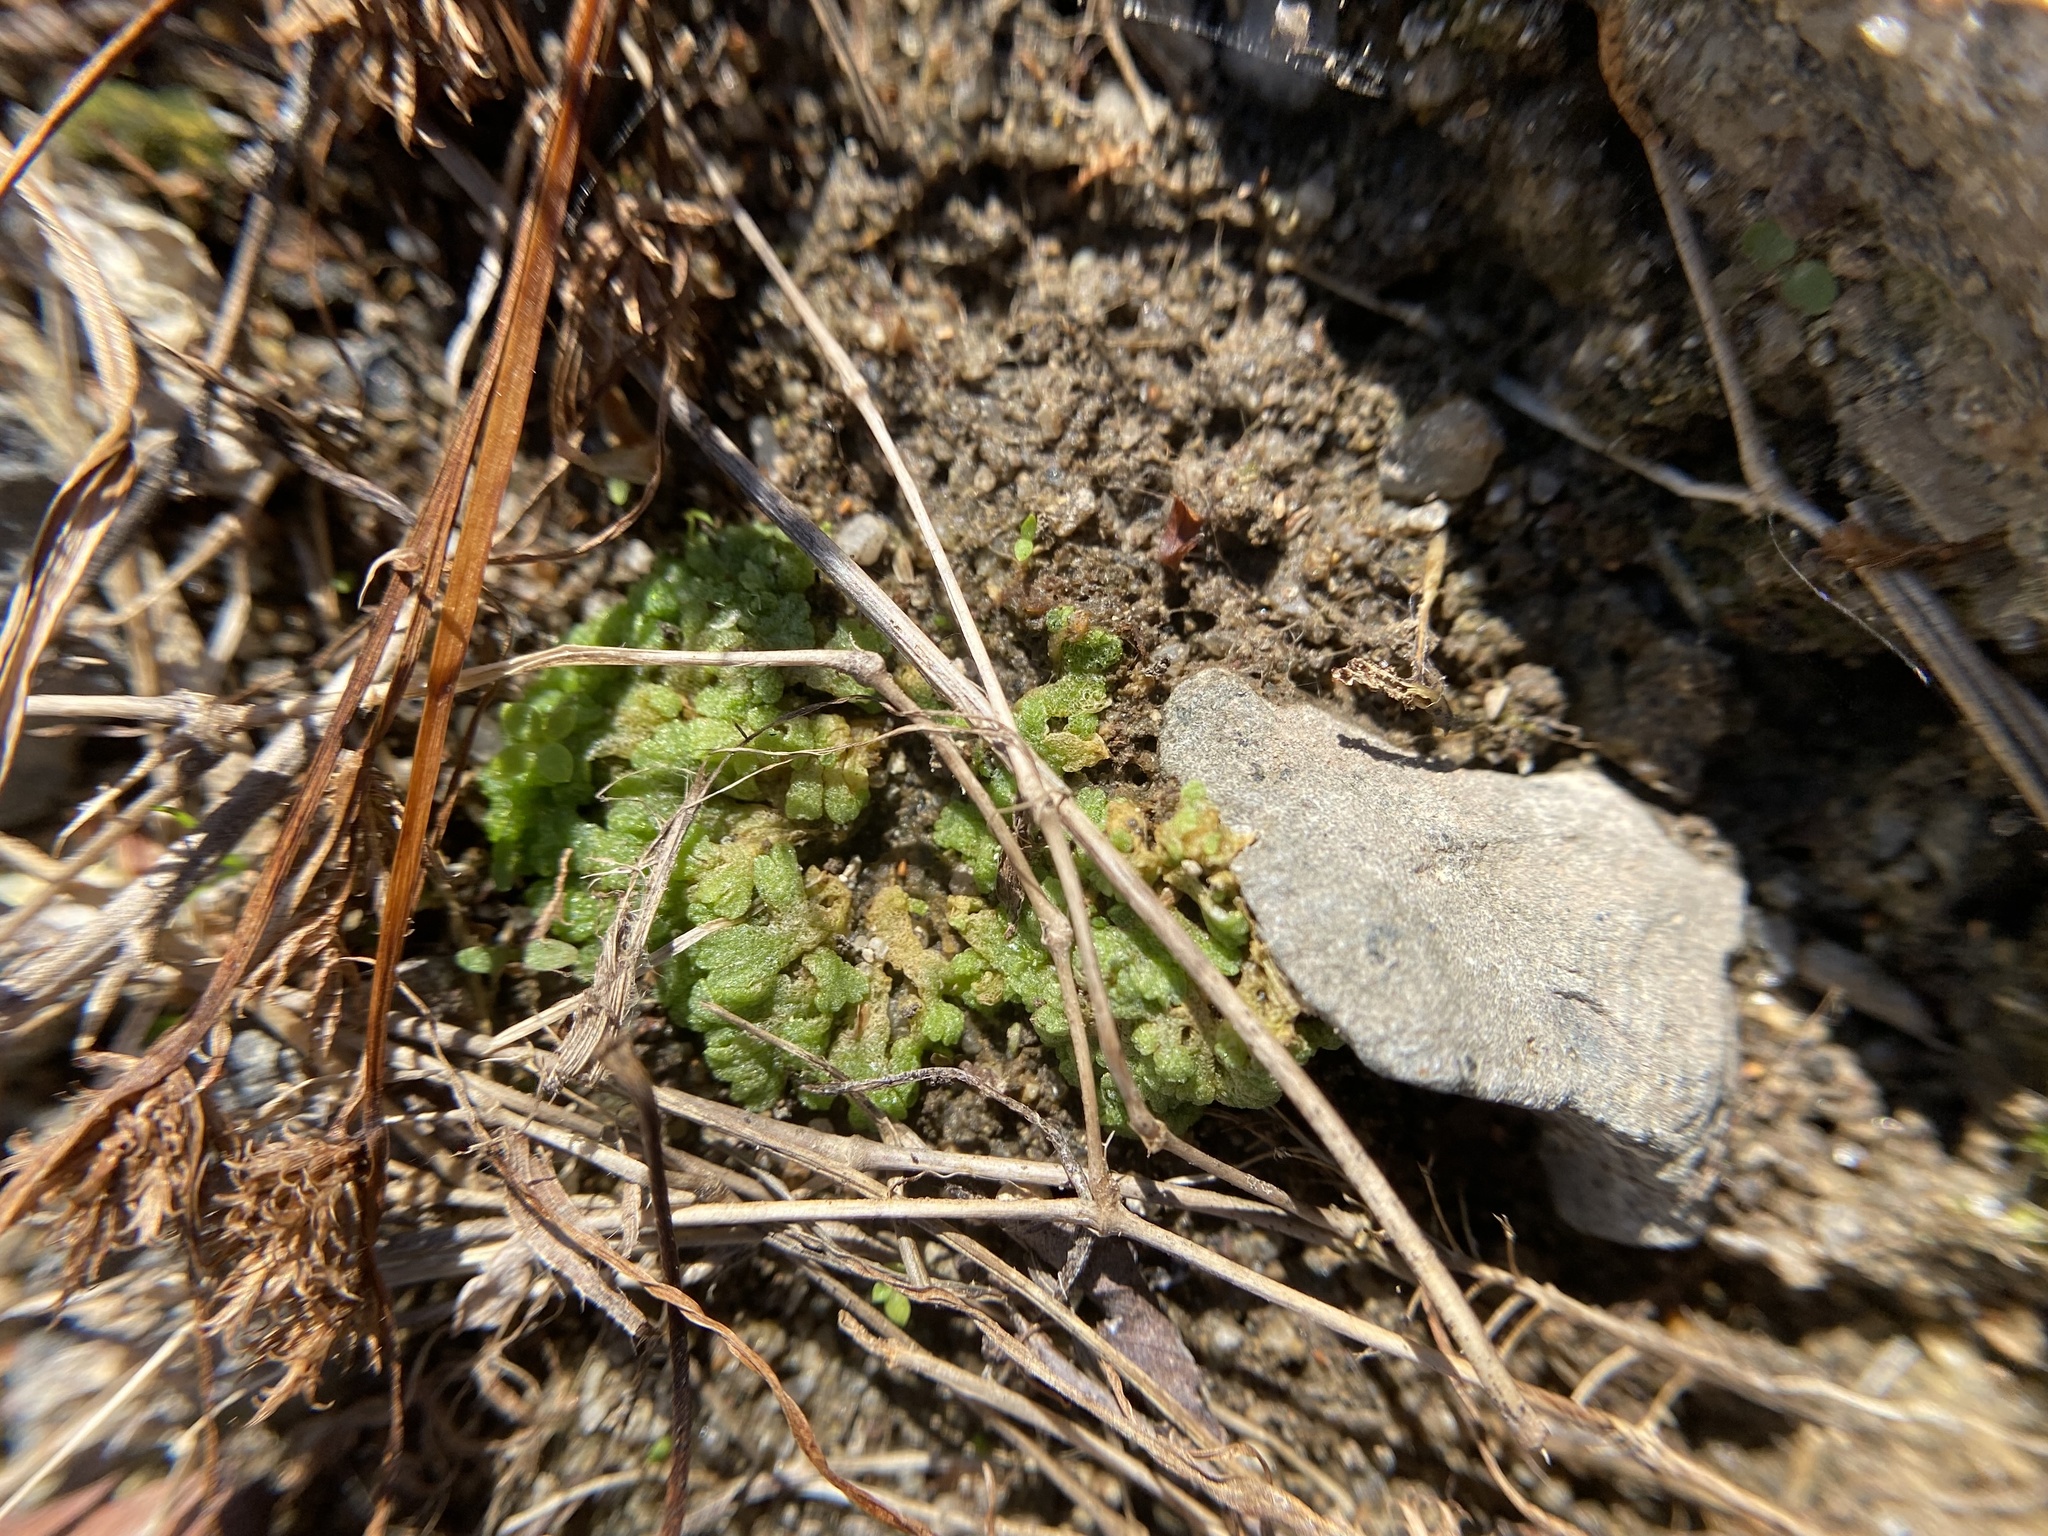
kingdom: Plantae
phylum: Marchantiophyta
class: Marchantiopsida
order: Marchantiales
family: Ricciaceae
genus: Riccia
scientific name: Riccia cavernosa
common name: Cavernous crystalwort
